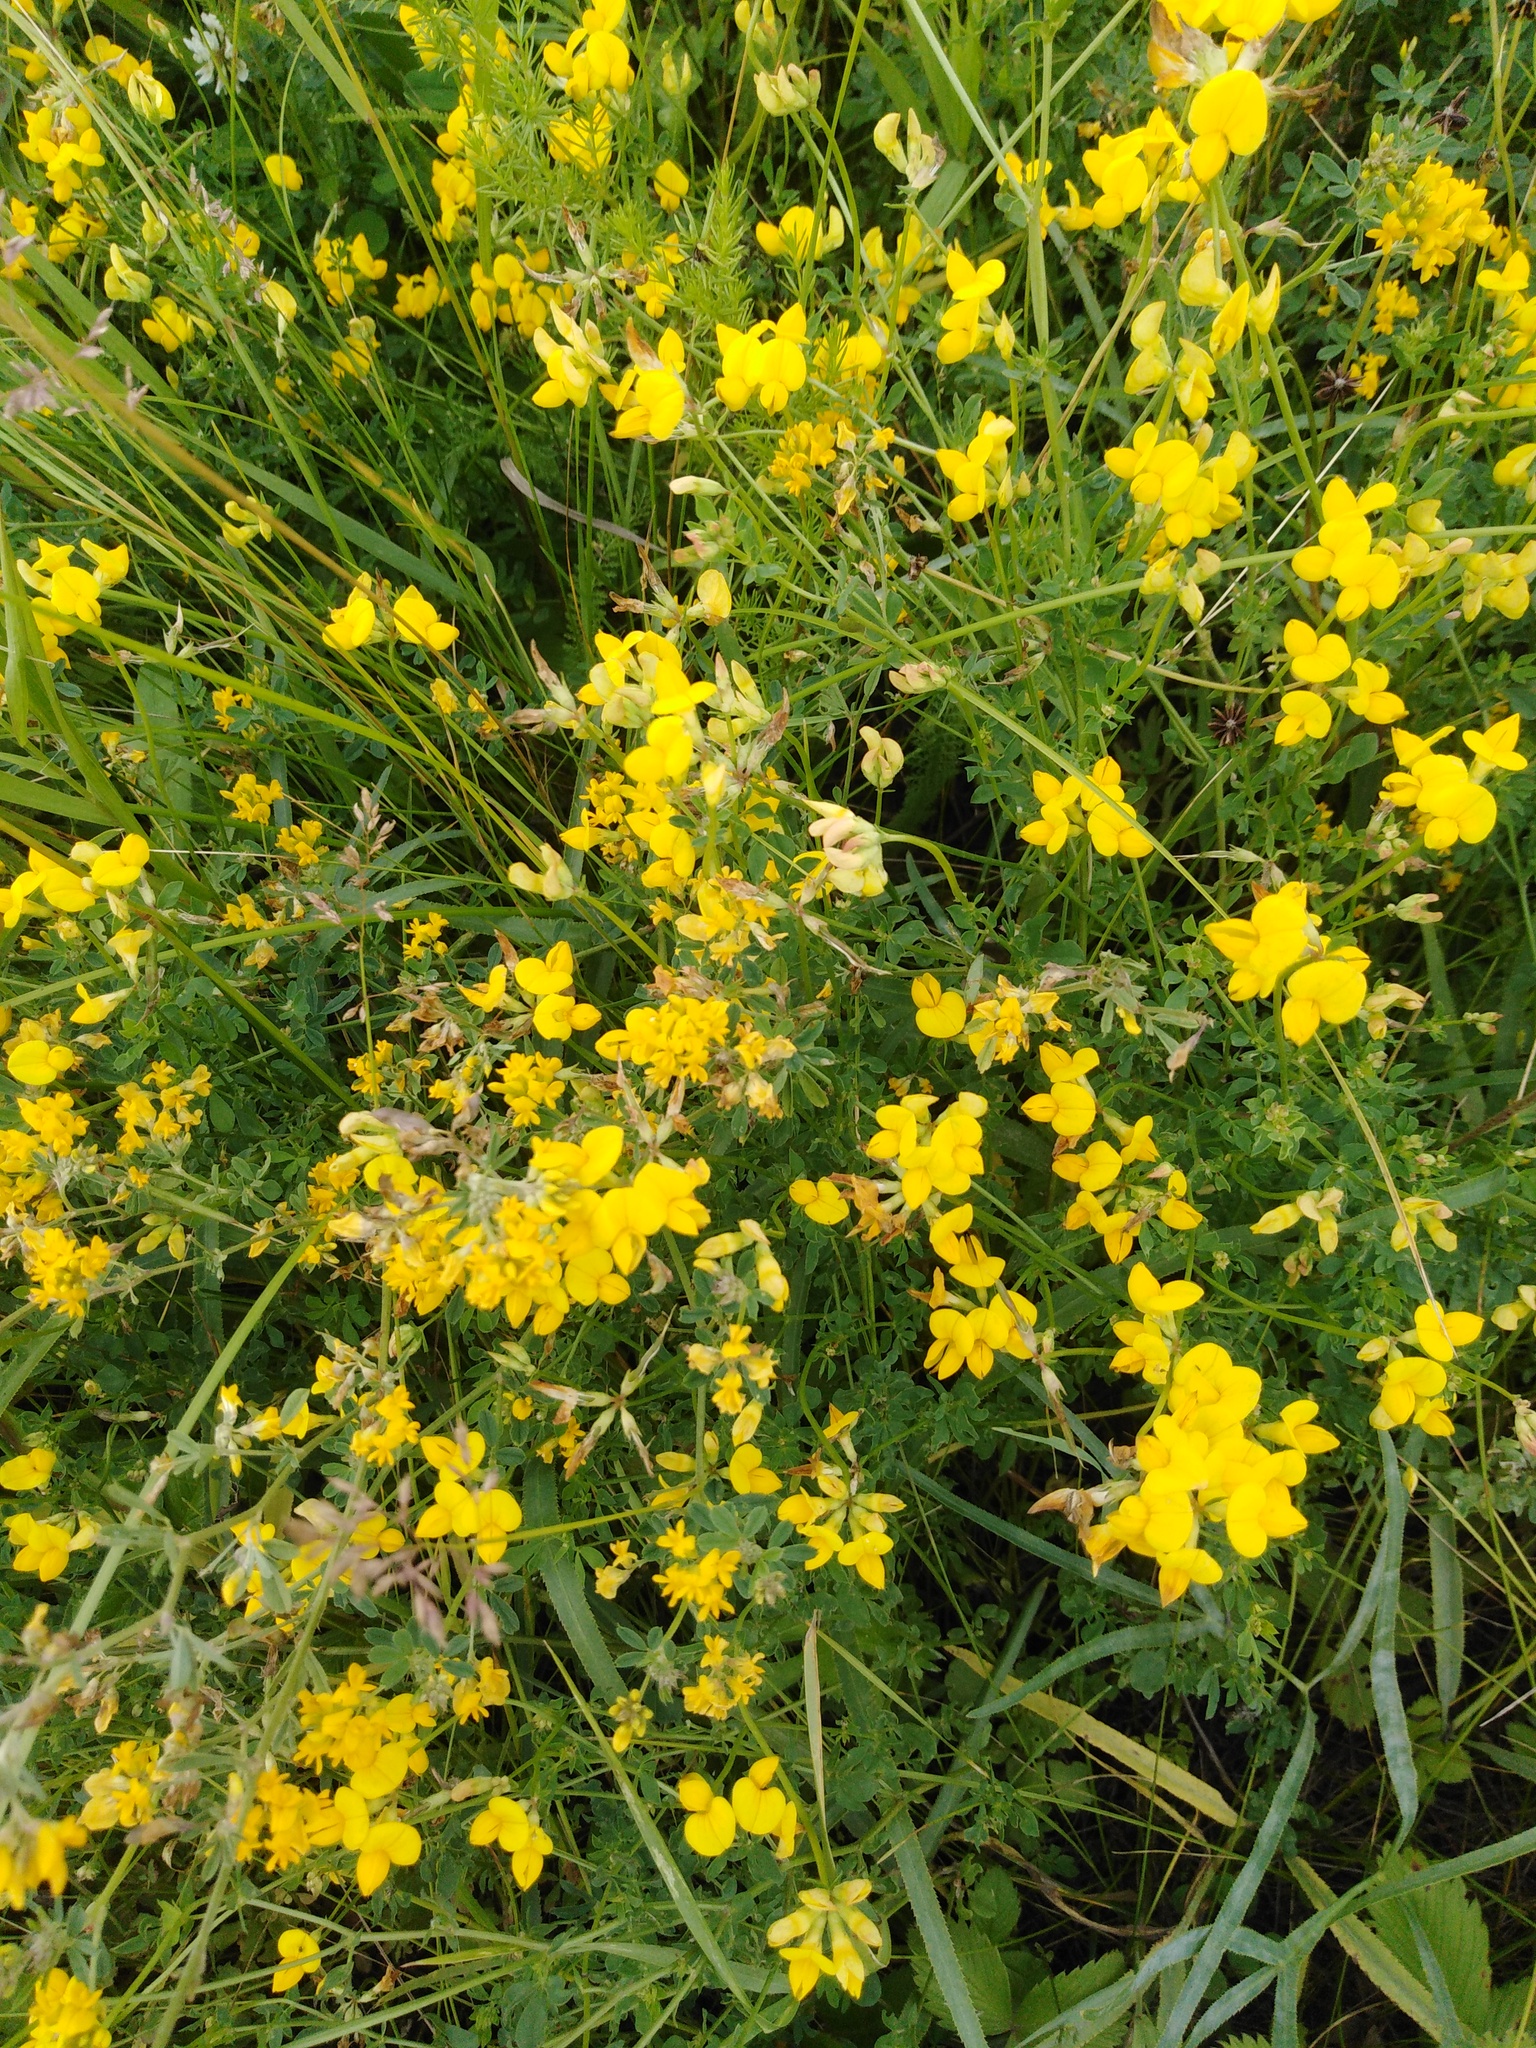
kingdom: Plantae
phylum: Tracheophyta
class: Magnoliopsida
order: Fabales
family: Fabaceae
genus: Lotus
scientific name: Lotus corniculatus
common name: Common bird's-foot-trefoil
